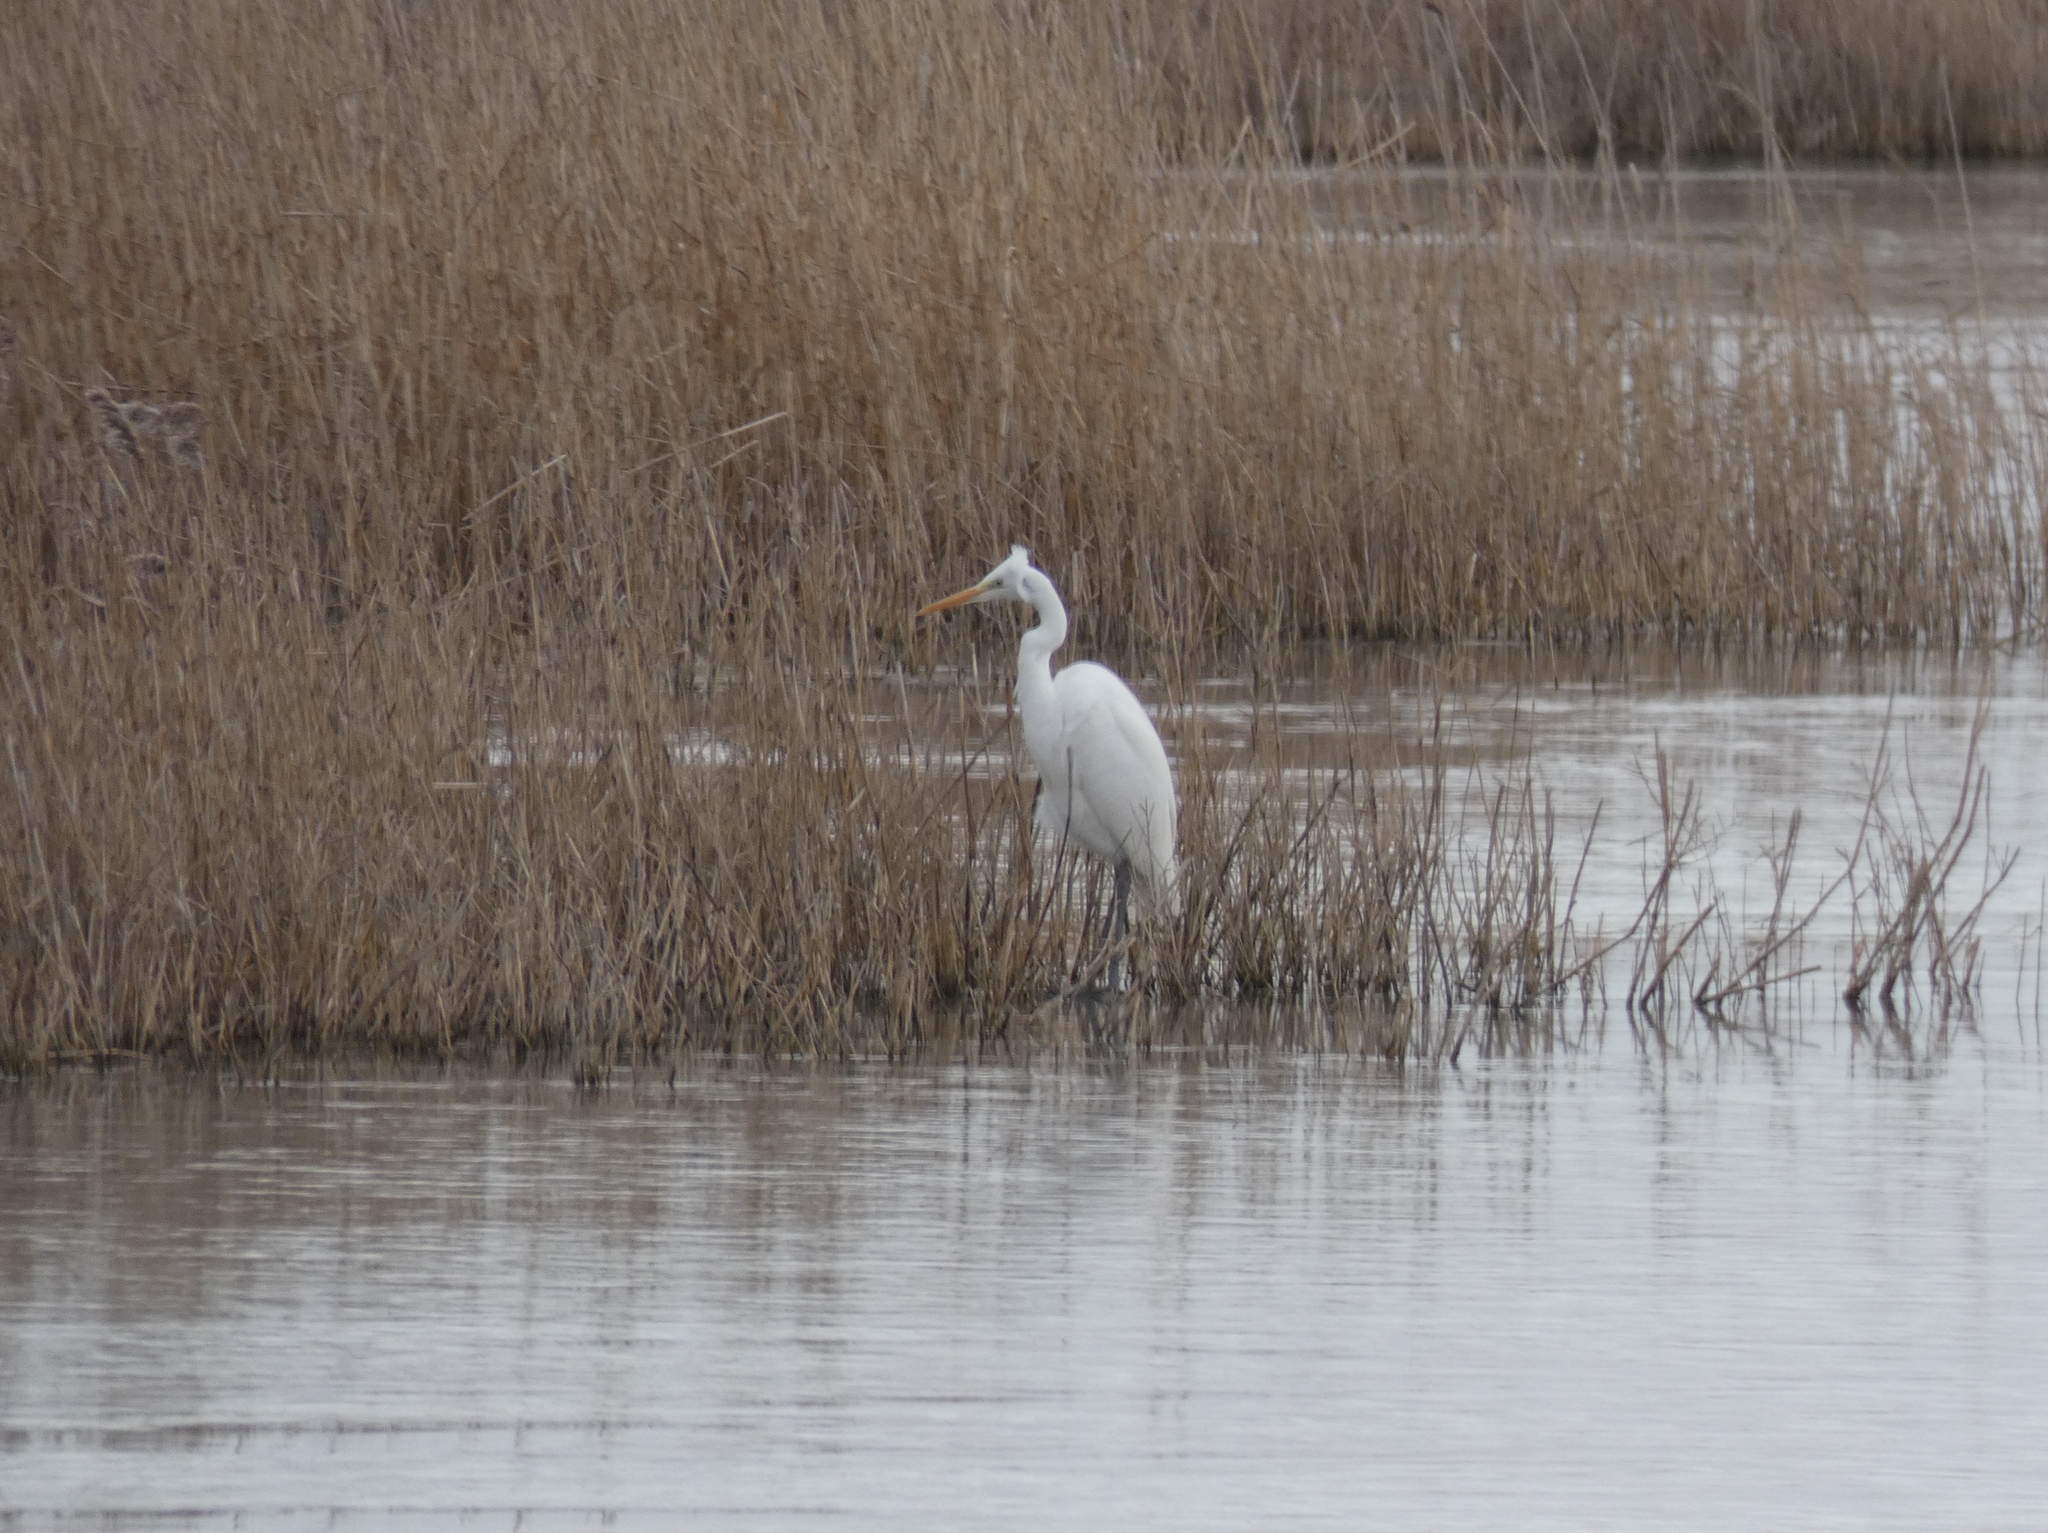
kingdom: Animalia
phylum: Chordata
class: Aves
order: Pelecaniformes
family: Ardeidae
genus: Ardea
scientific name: Ardea alba
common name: Great egret
